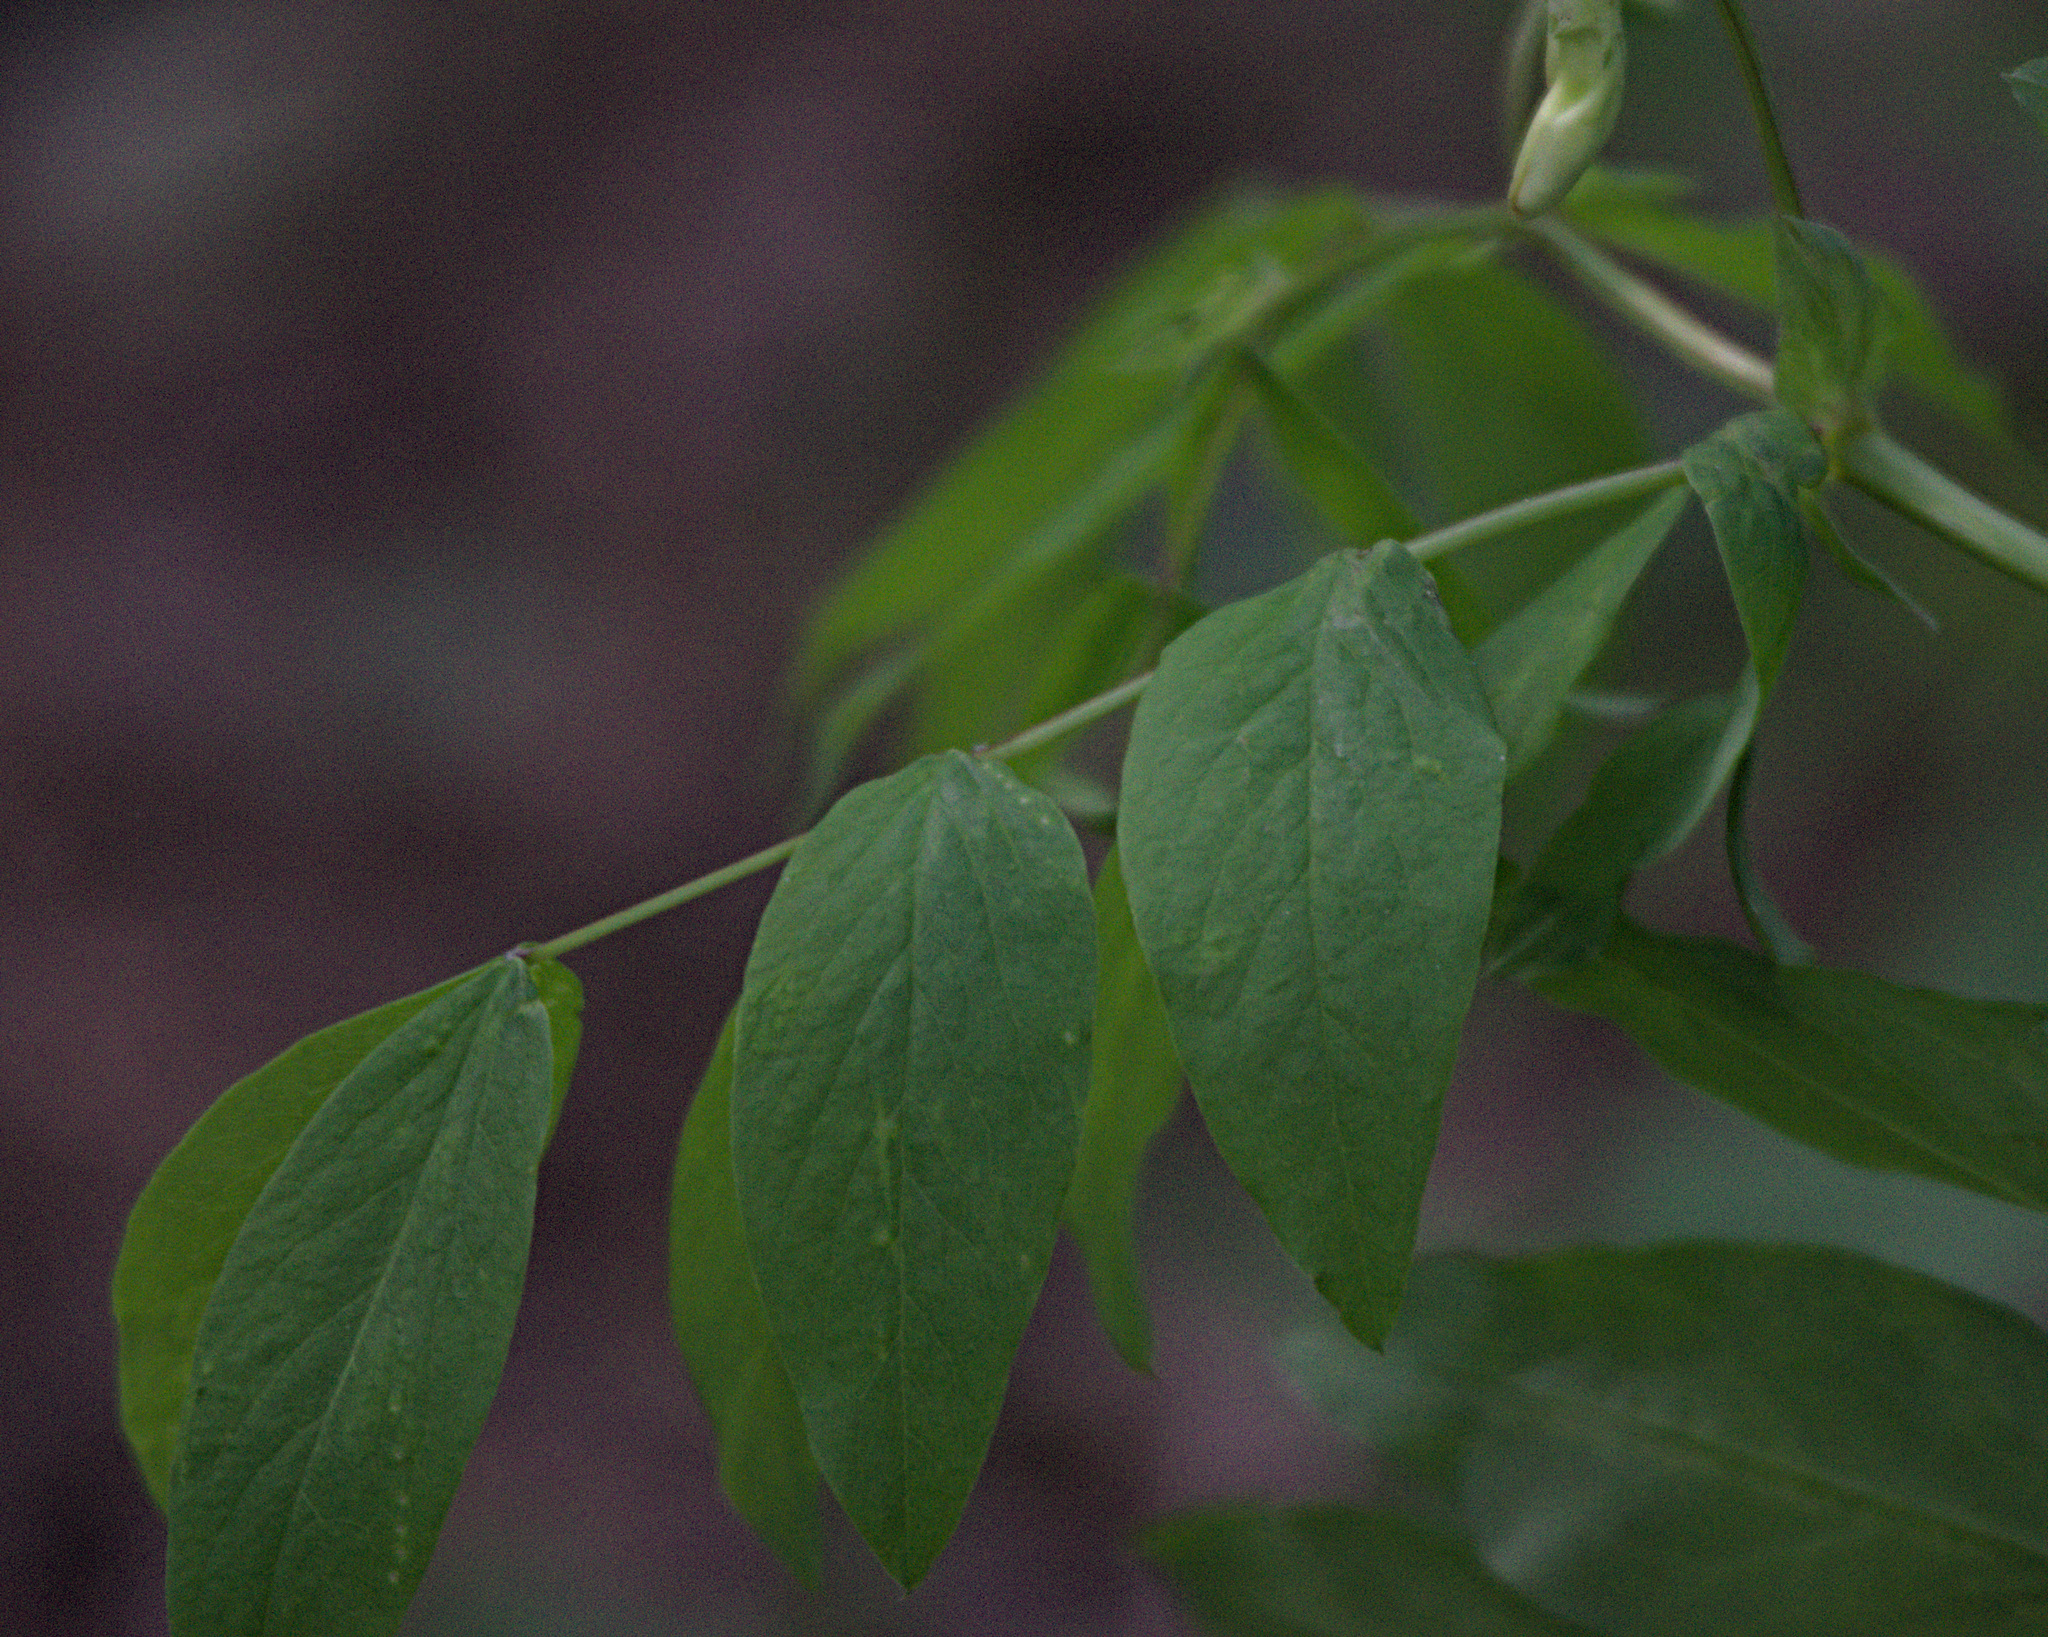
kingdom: Plantae
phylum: Tracheophyta
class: Magnoliopsida
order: Fabales
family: Fabaceae
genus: Lathyrus
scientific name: Lathyrus gmelinii
